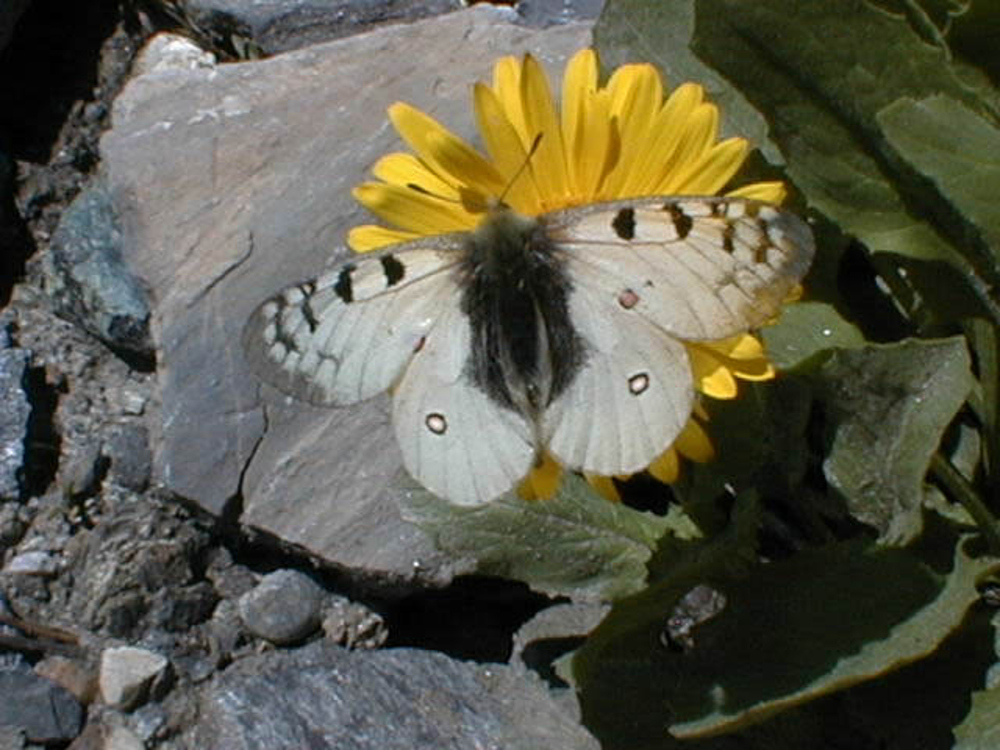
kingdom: Animalia
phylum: Arthropoda
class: Insecta
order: Lepidoptera
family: Papilionidae
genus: Parnassius
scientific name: Parnassius phoebus
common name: Small apollo
